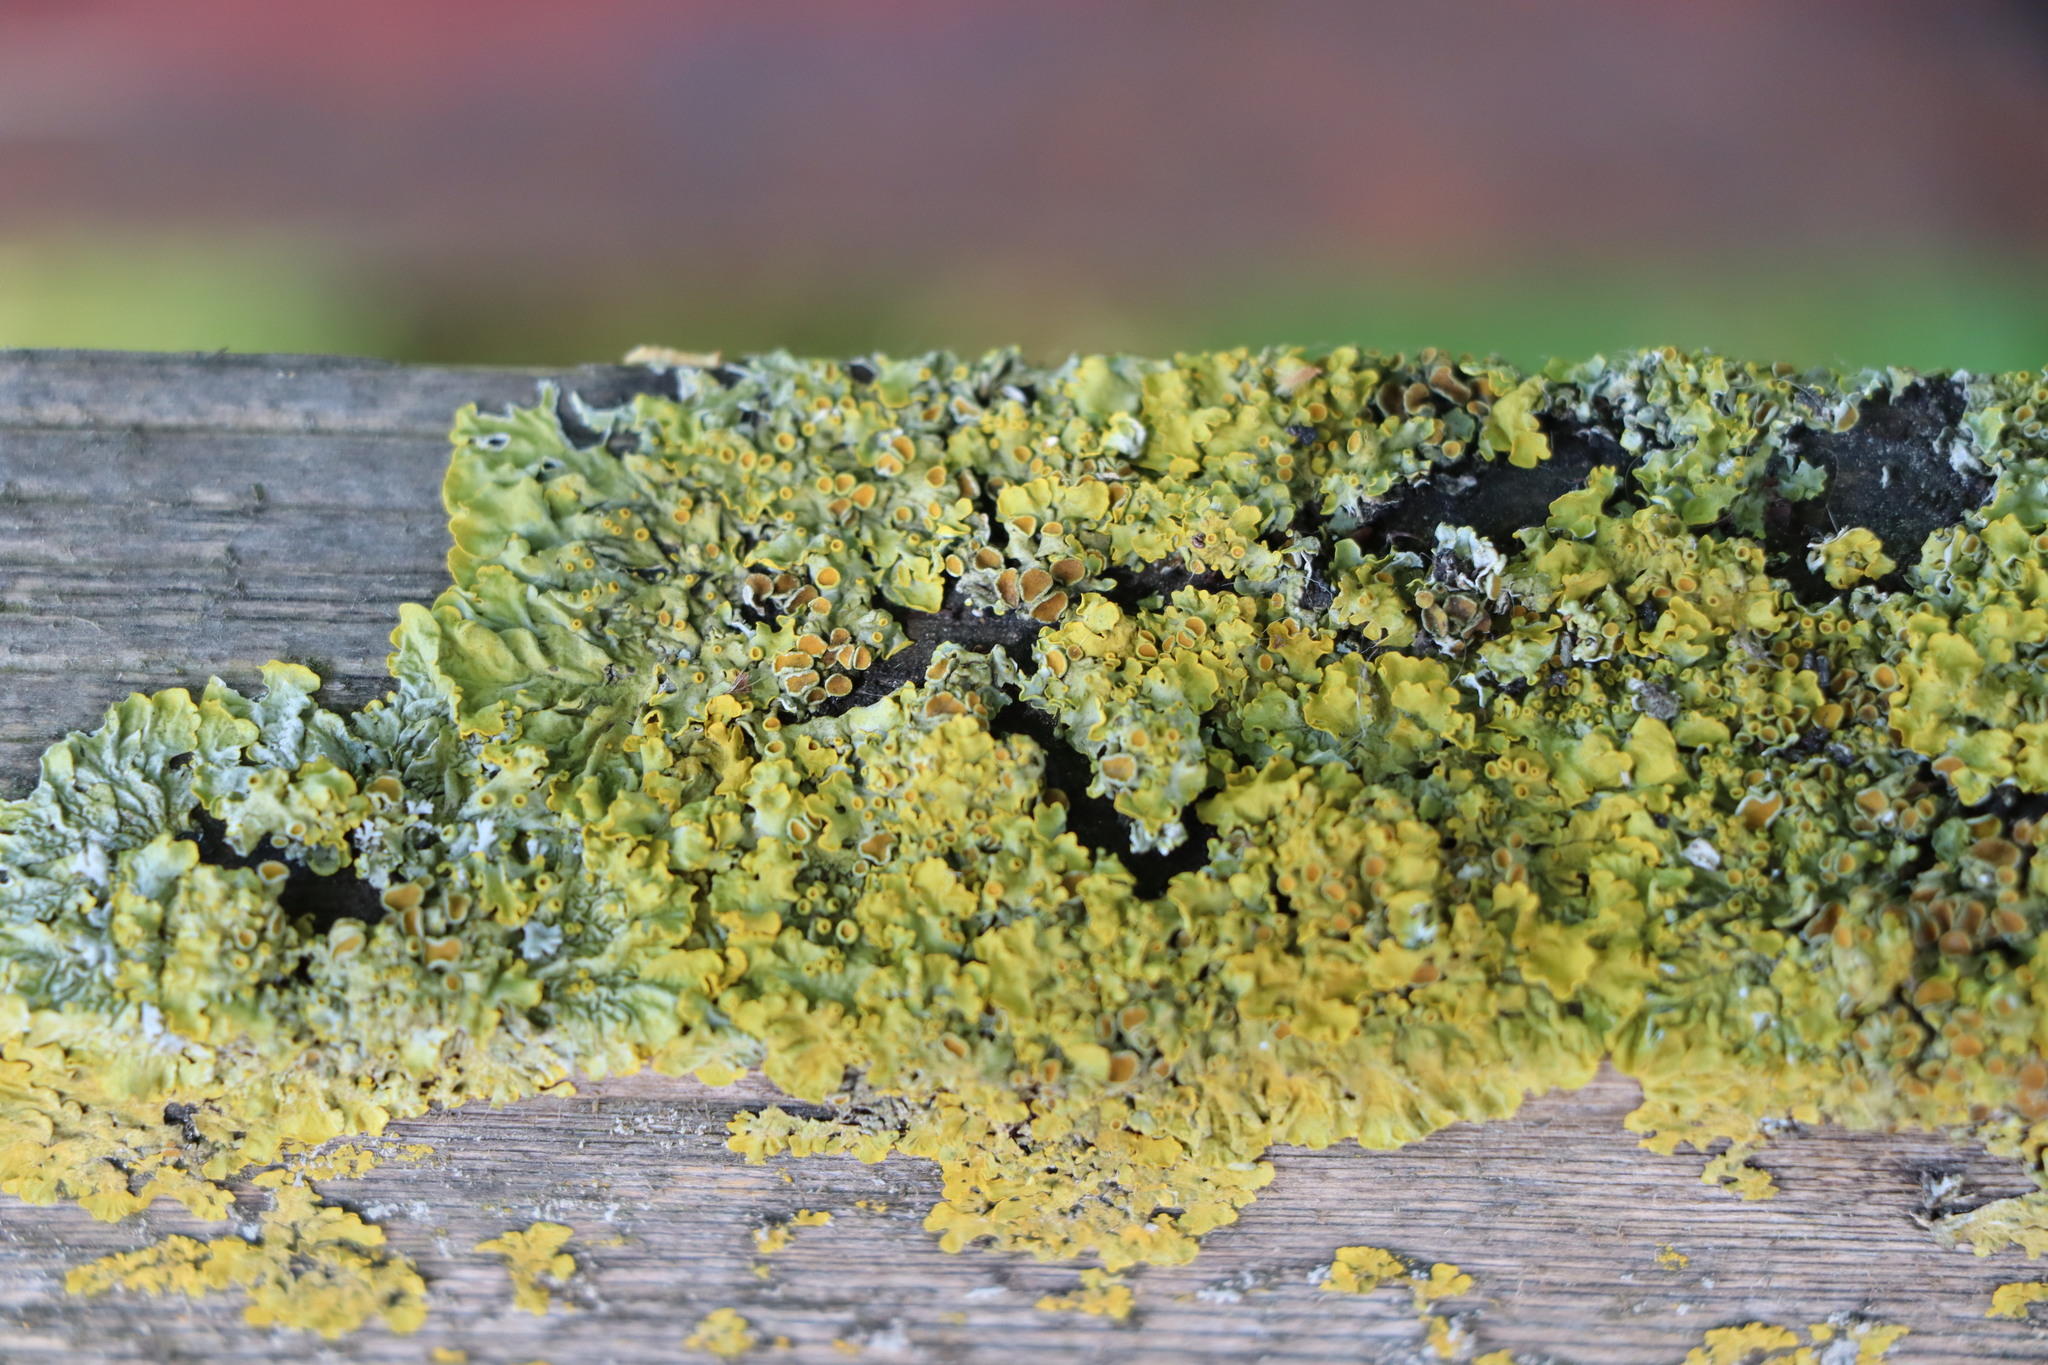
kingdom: Fungi
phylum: Ascomycota
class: Lecanoromycetes
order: Teloschistales
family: Teloschistaceae
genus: Xanthoria
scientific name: Xanthoria parietina
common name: Common orange lichen
